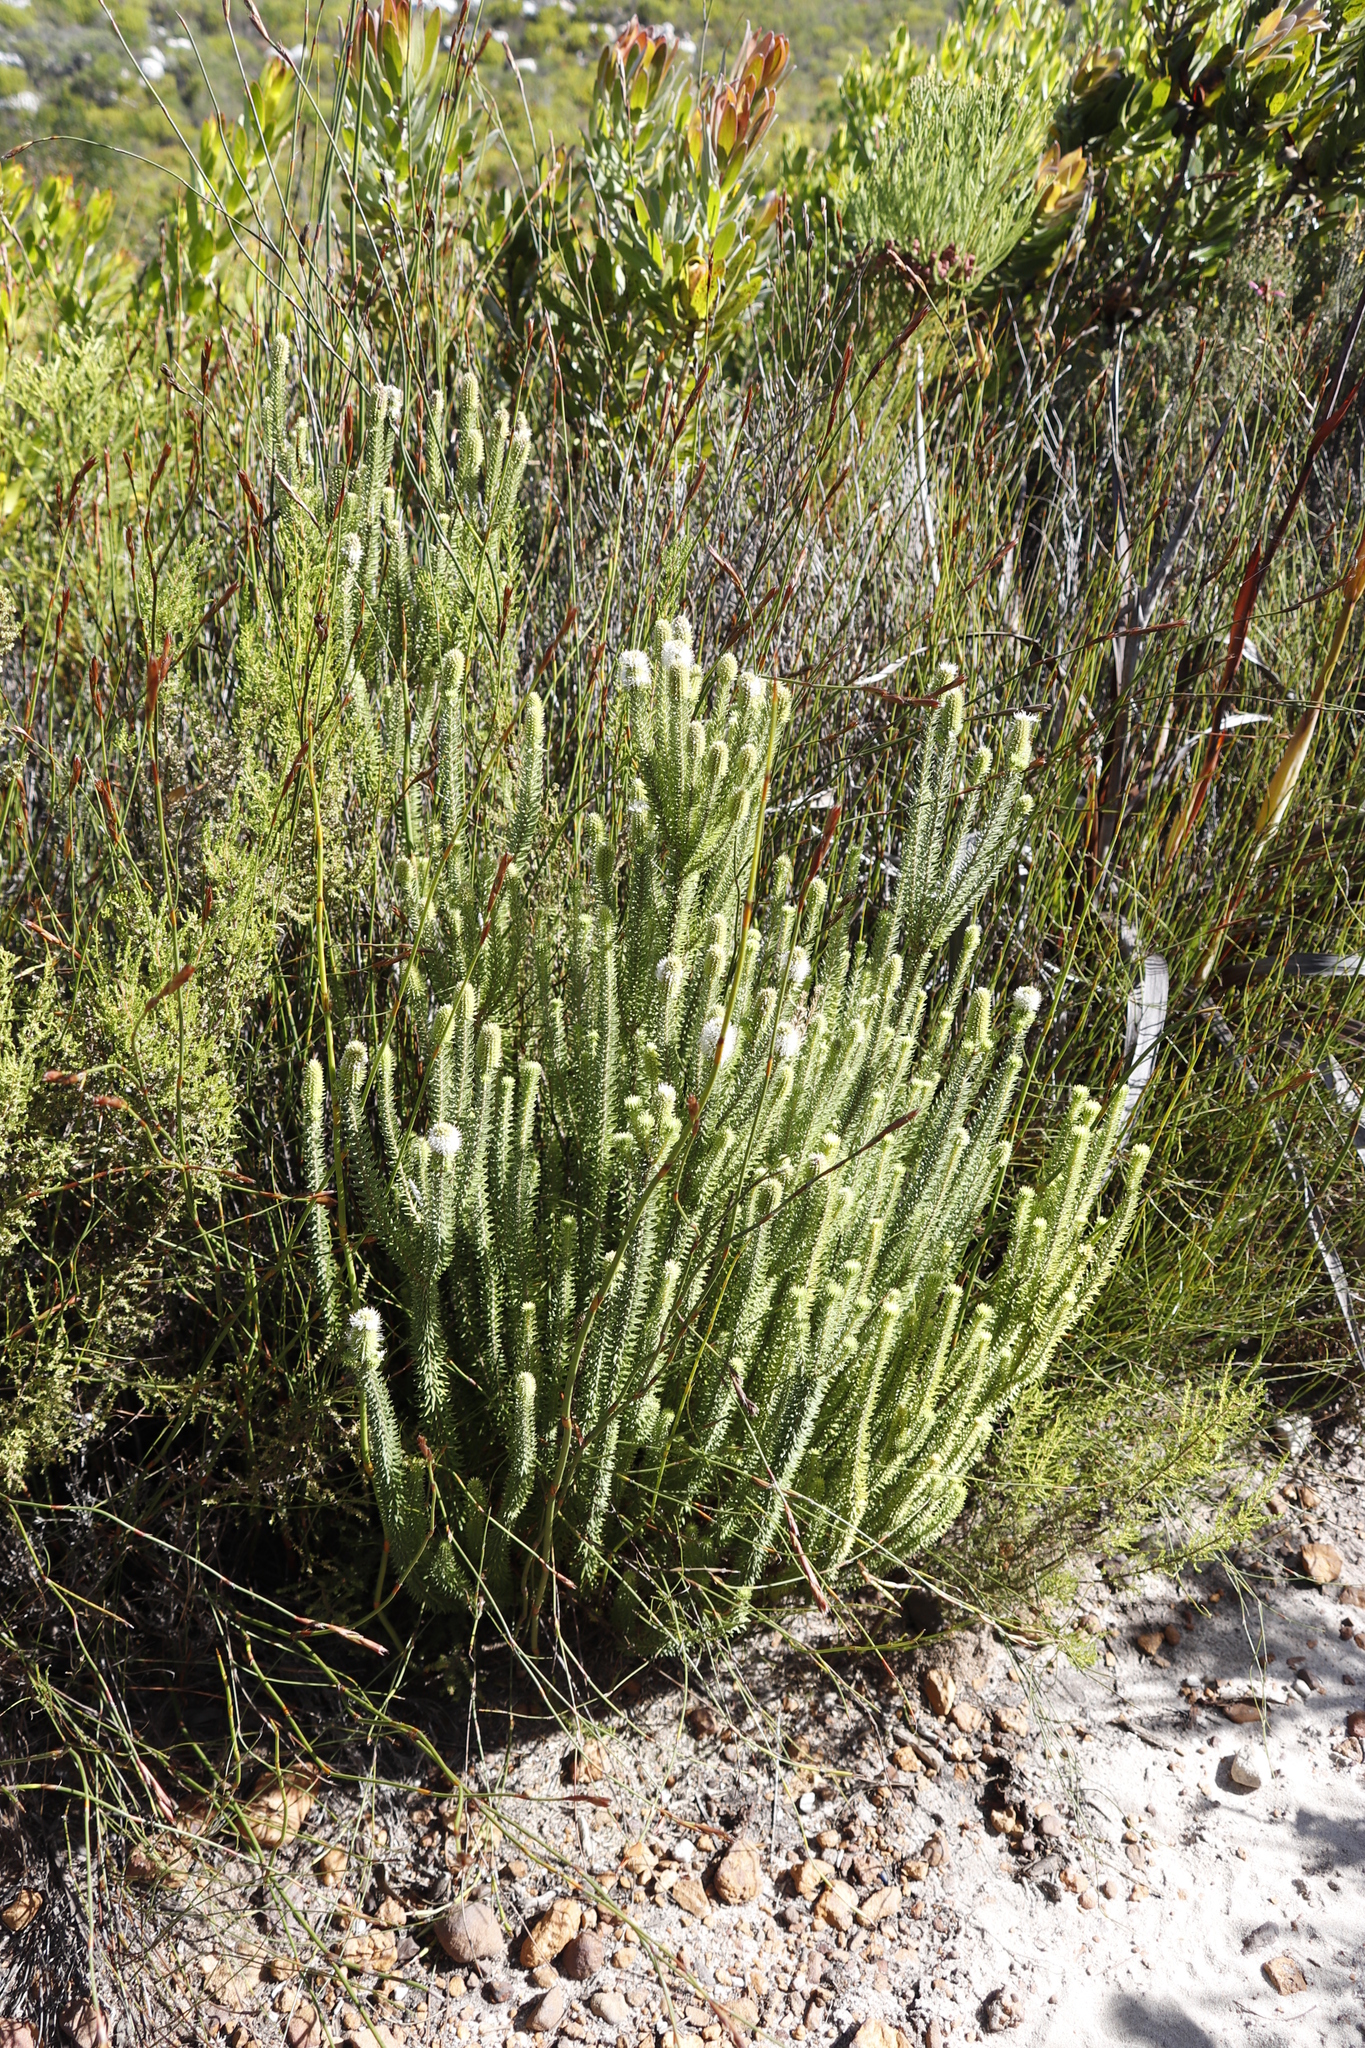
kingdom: Plantae
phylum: Tracheophyta
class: Magnoliopsida
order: Lamiales
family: Stilbaceae
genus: Stilbe
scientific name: Stilbe vestita
